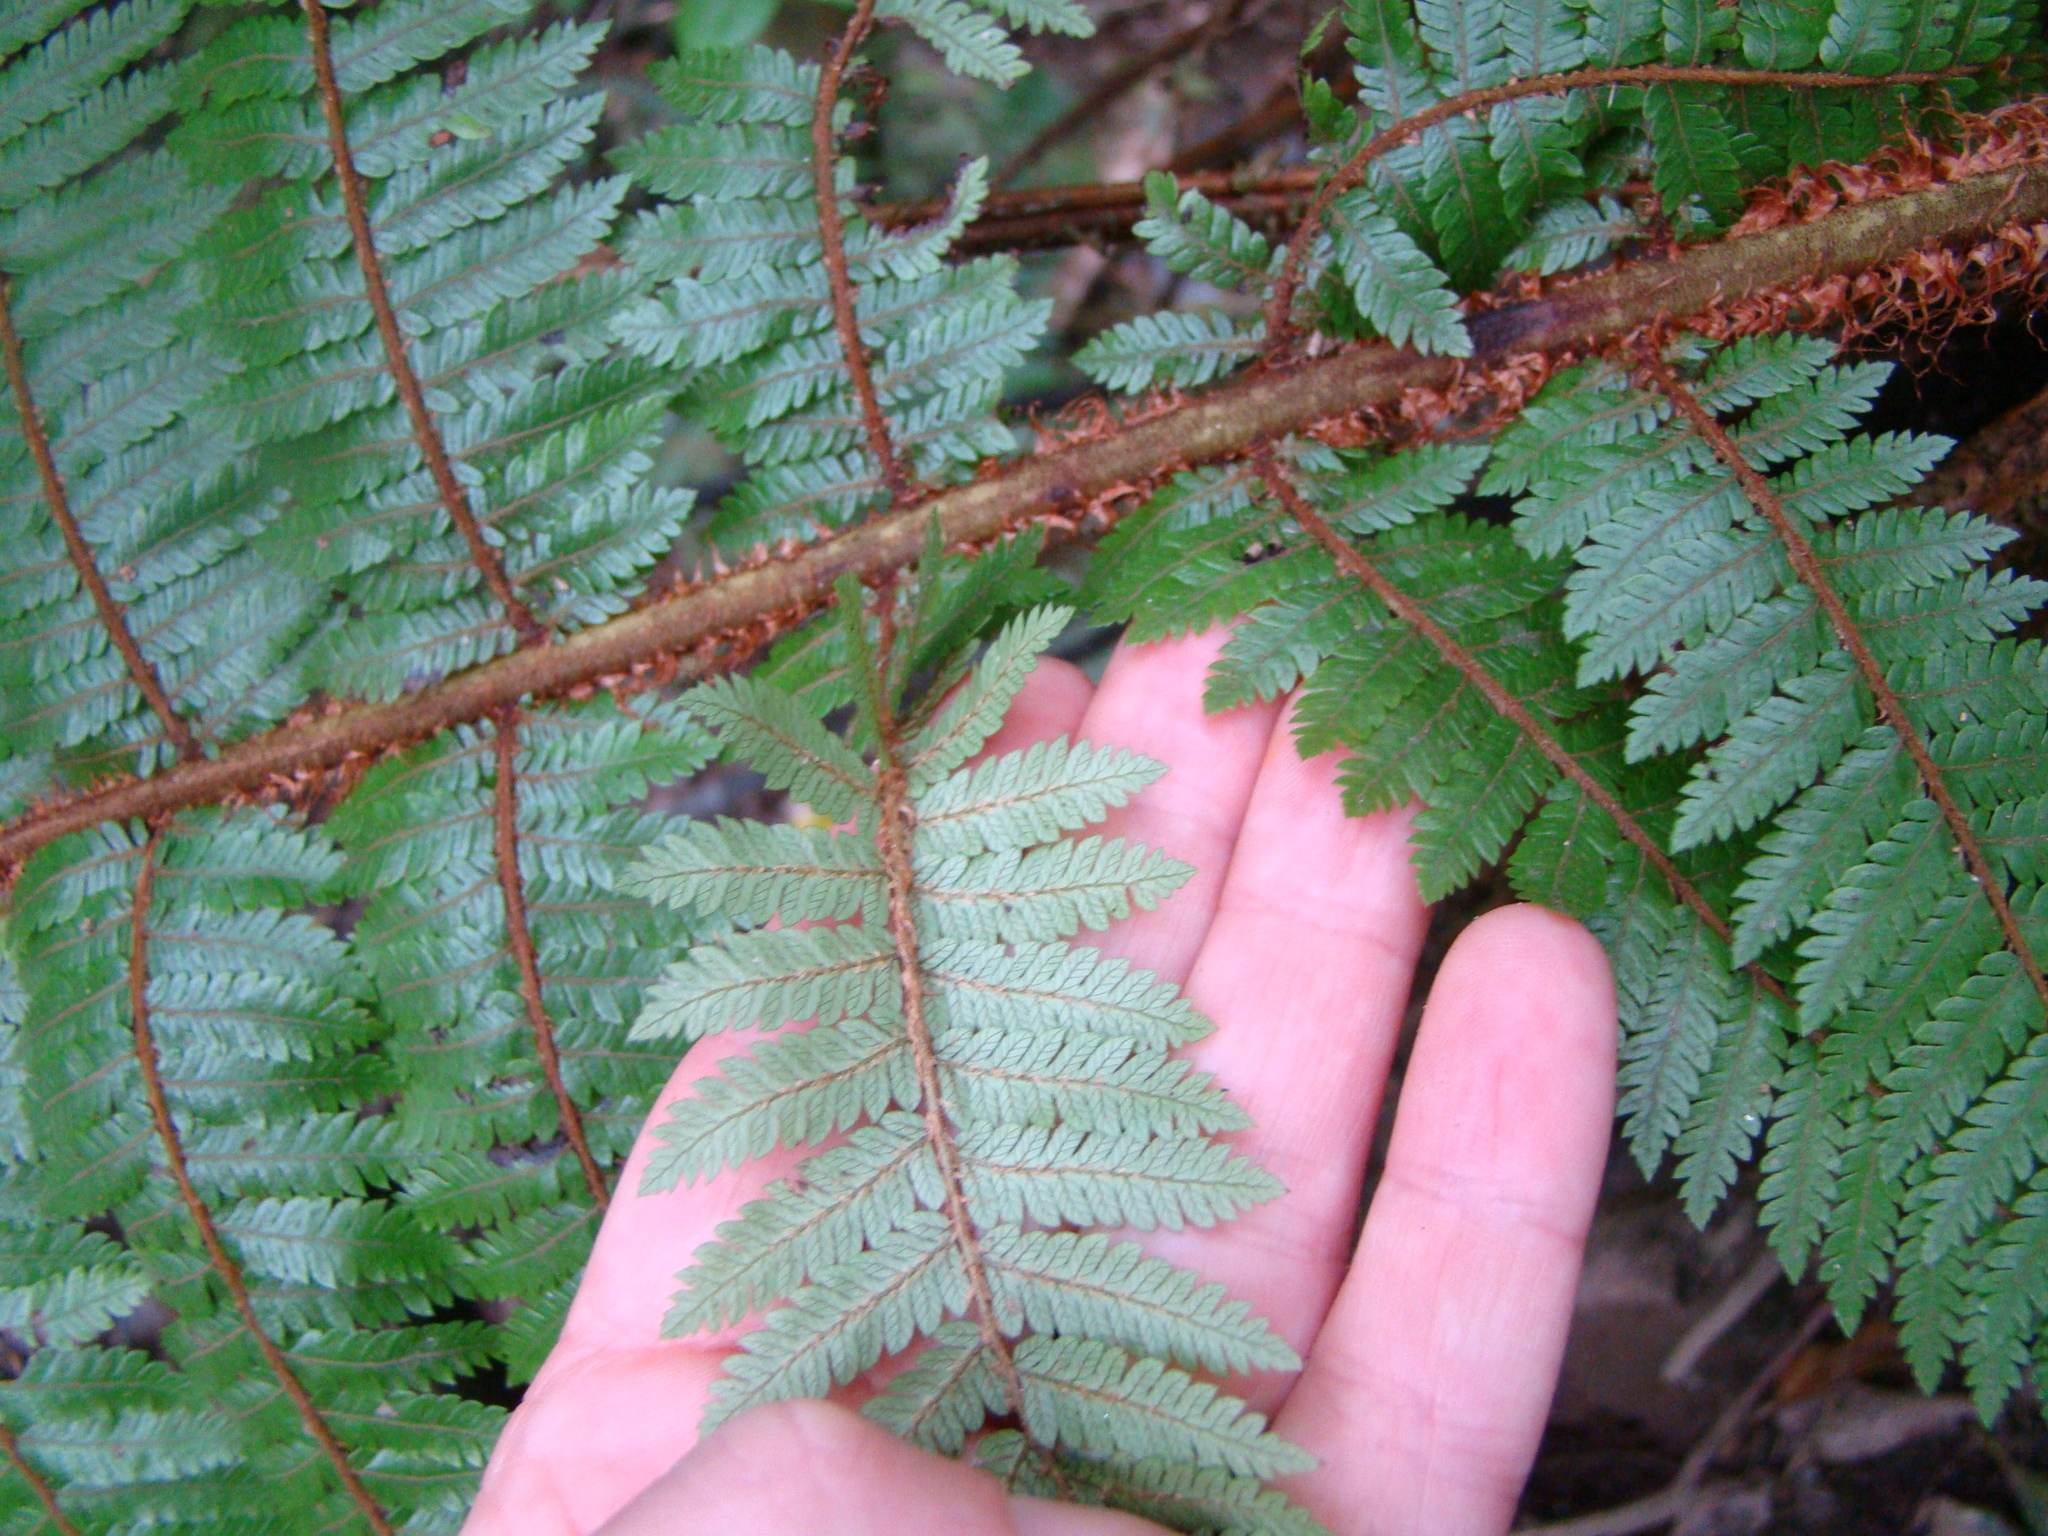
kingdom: Plantae
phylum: Tracheophyta
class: Polypodiopsida
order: Cyatheales
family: Cyatheaceae
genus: Alsophila
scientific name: Alsophila smithii
